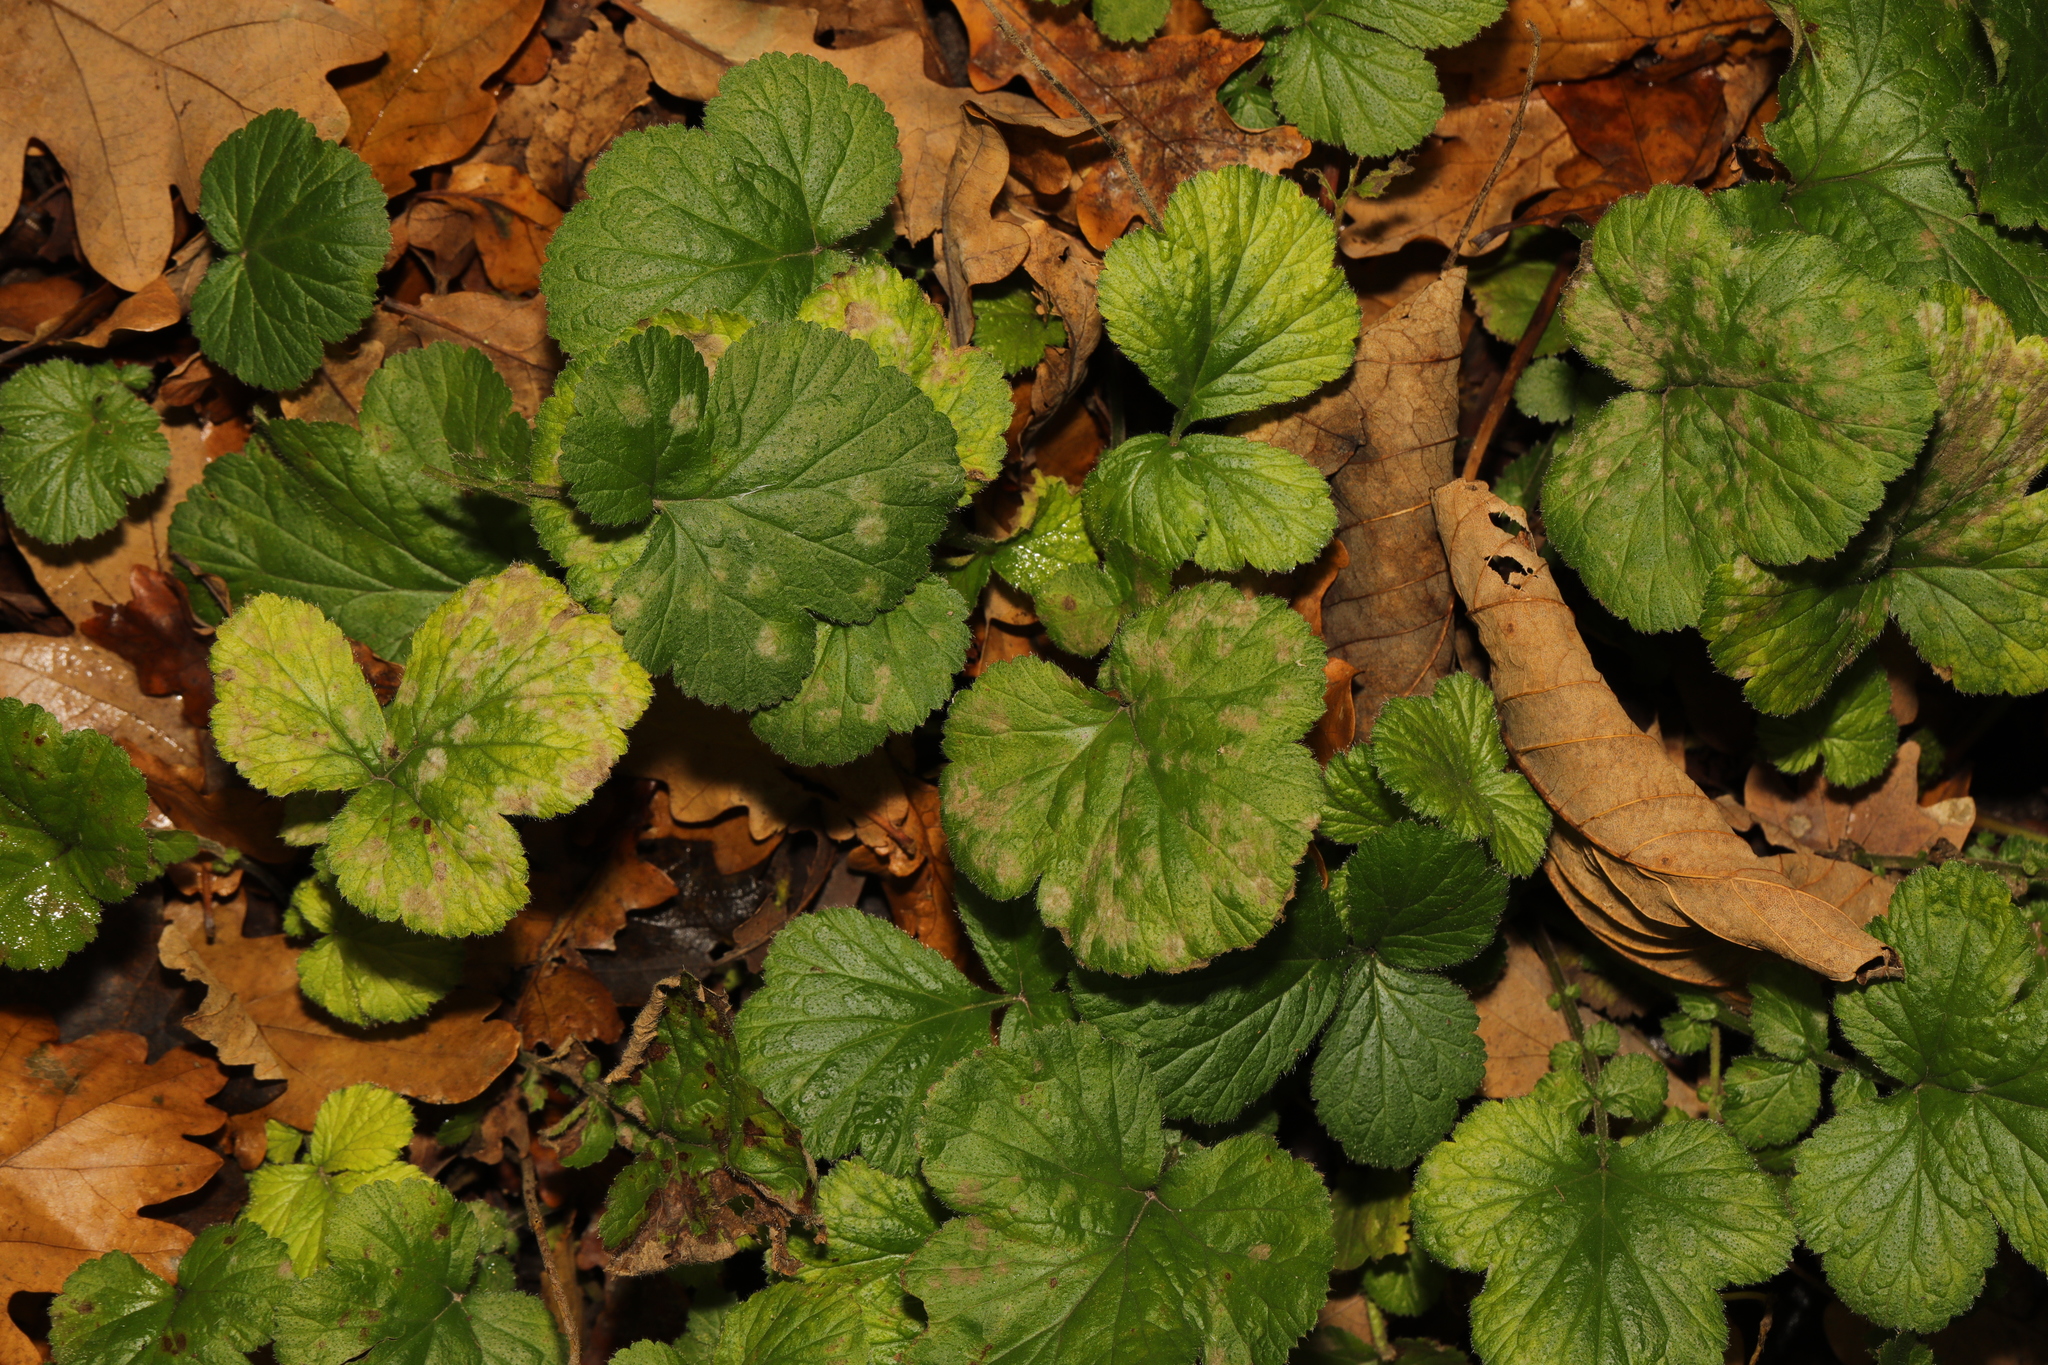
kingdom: Plantae
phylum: Tracheophyta
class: Magnoliopsida
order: Rosales
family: Rosaceae
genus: Geum
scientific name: Geum urbanum
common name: Wood avens
